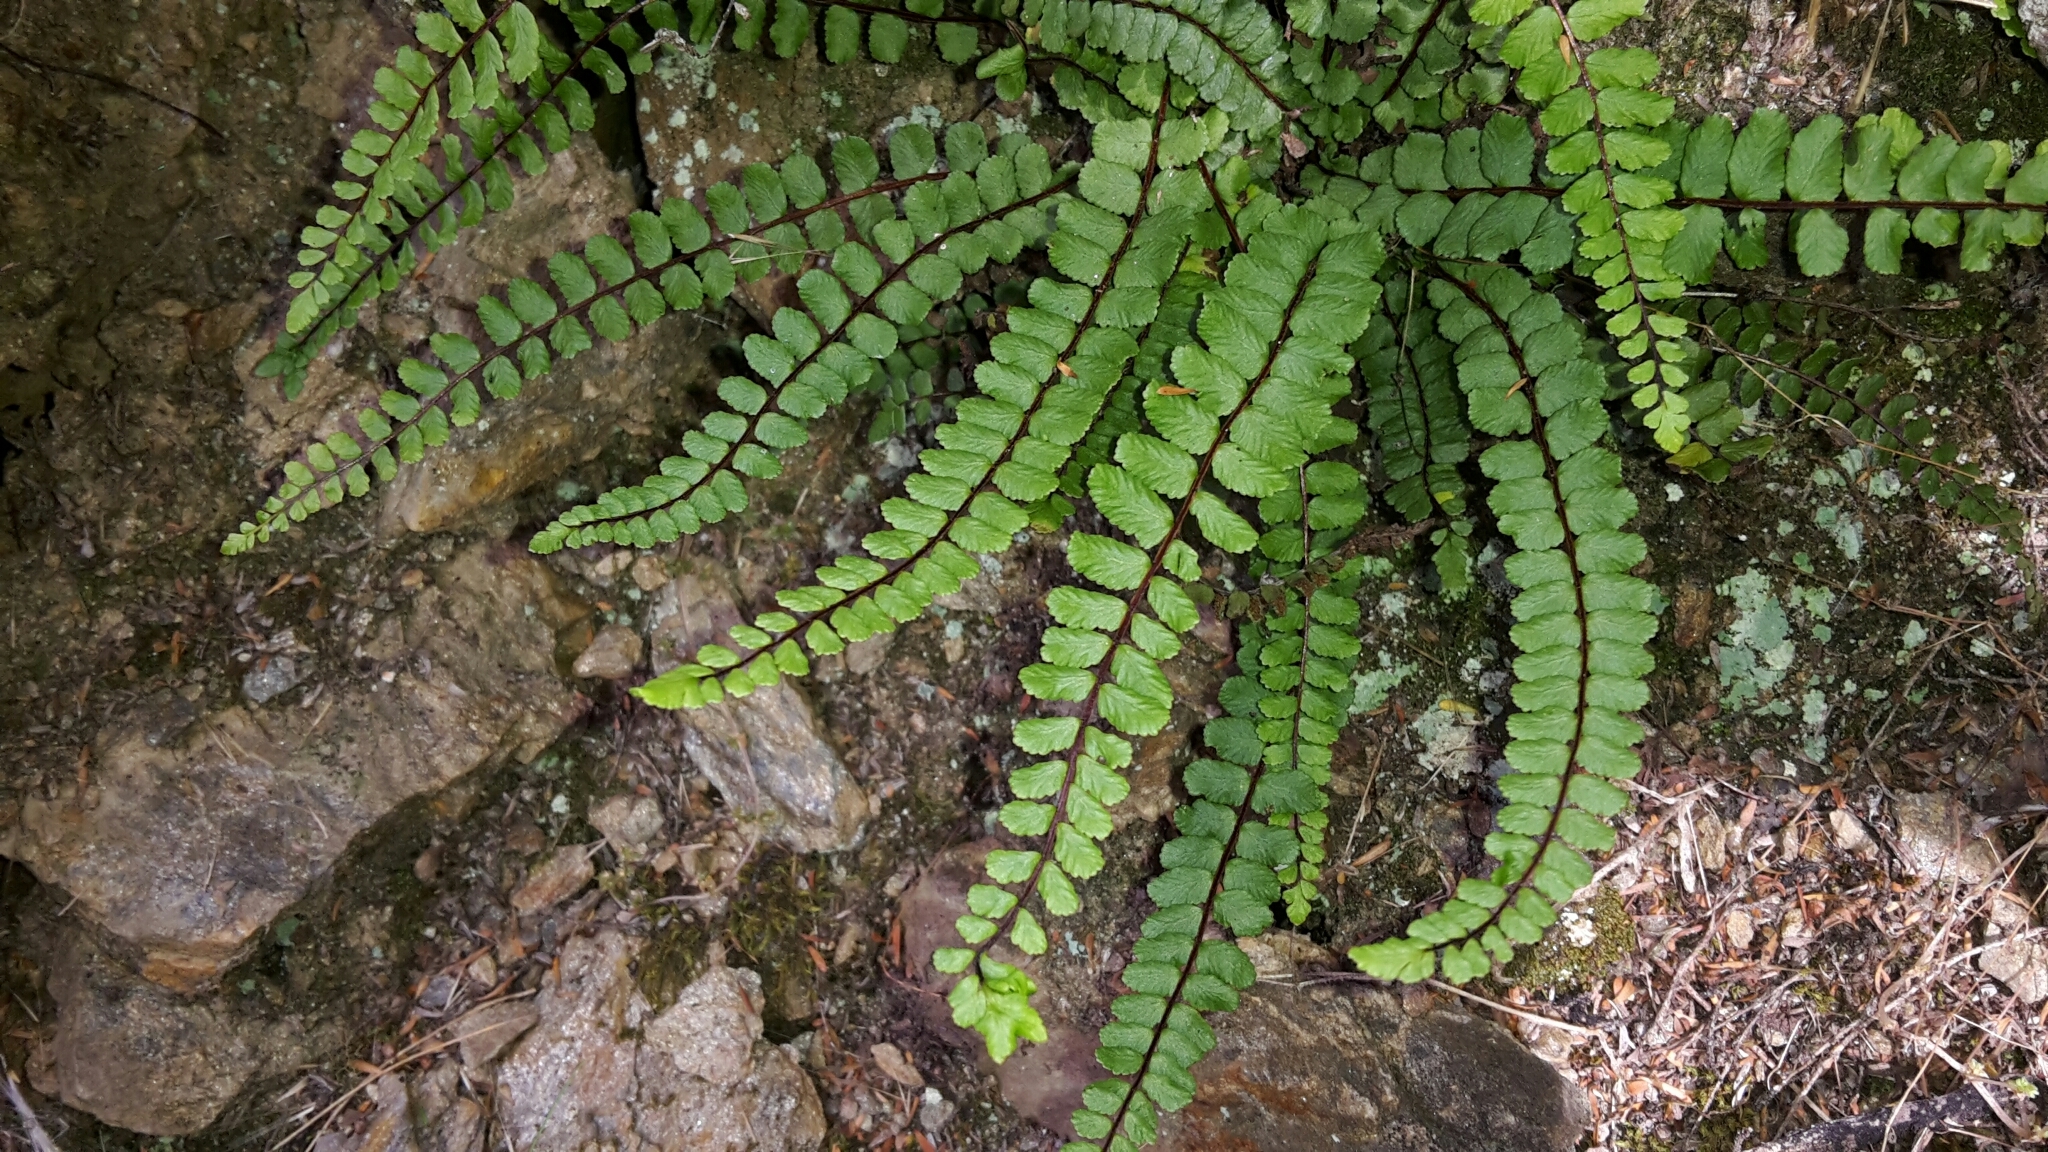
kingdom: Plantae
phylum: Tracheophyta
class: Polypodiopsida
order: Polypodiales
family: Aspleniaceae
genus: Asplenium
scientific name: Asplenium trichomanes
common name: Maidenhair spleenwort
